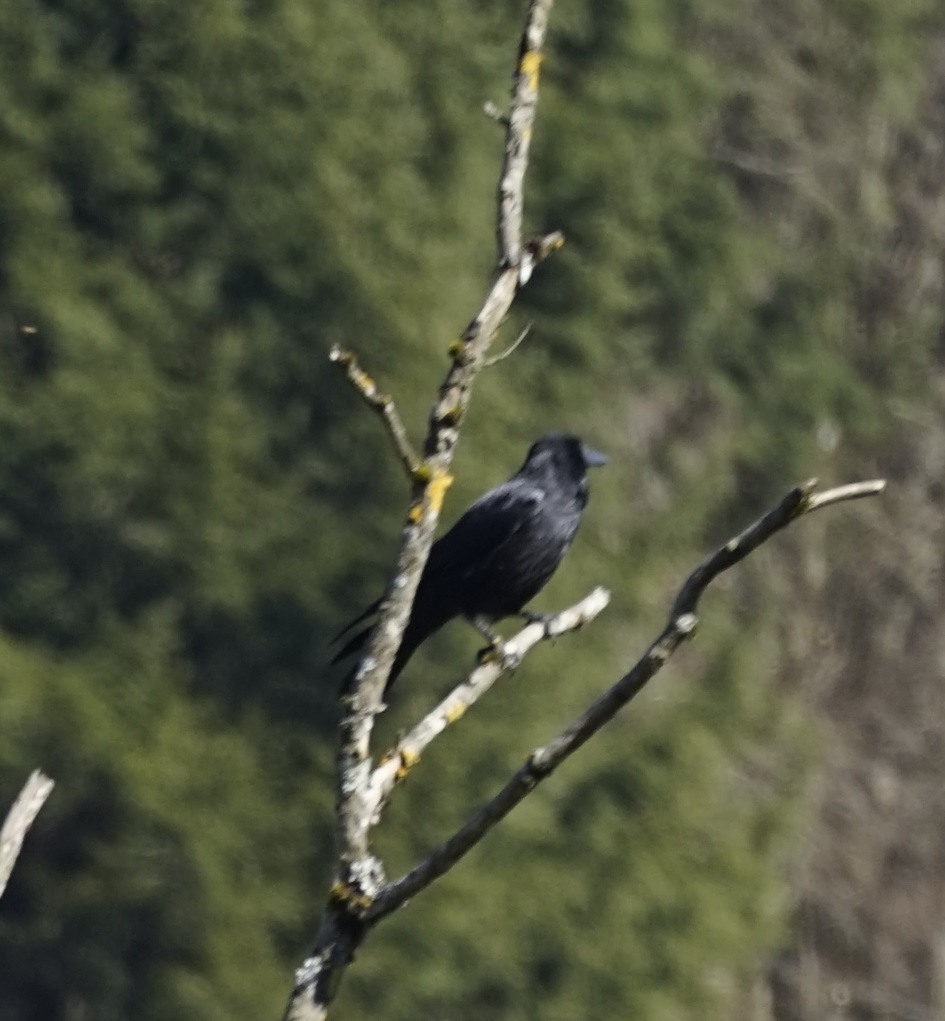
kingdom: Animalia
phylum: Chordata
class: Aves
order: Passeriformes
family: Corvidae
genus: Corvus
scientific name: Corvus corone
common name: Carrion crow
